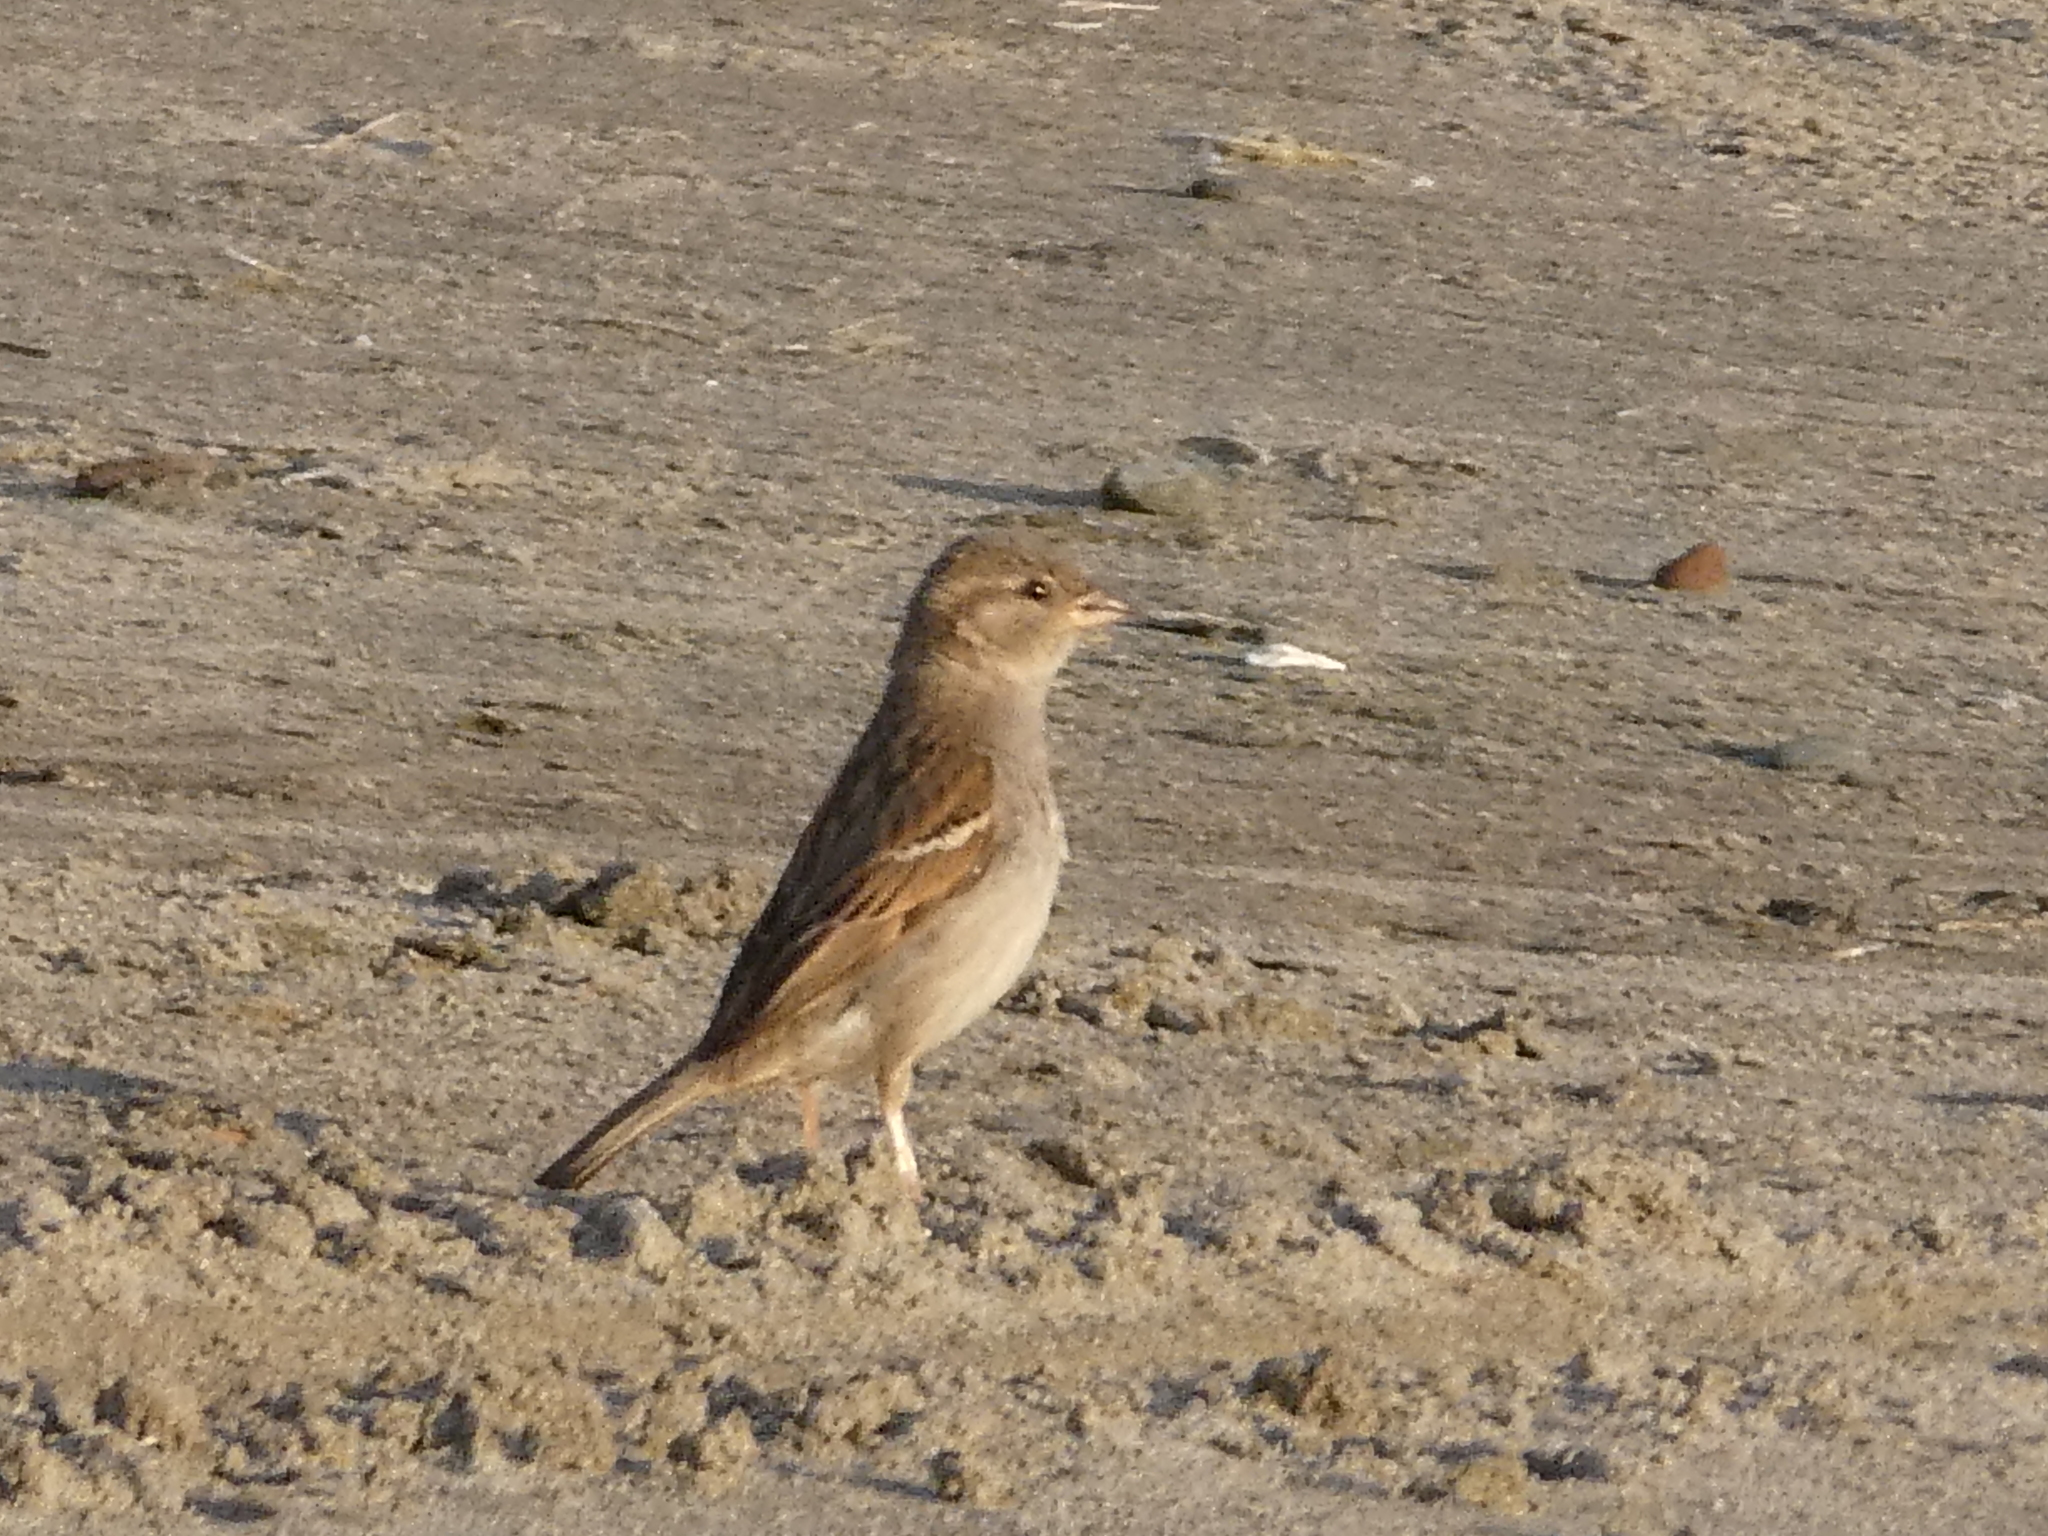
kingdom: Animalia
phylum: Chordata
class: Aves
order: Passeriformes
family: Passeridae
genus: Passer
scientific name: Passer domesticus
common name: House sparrow
